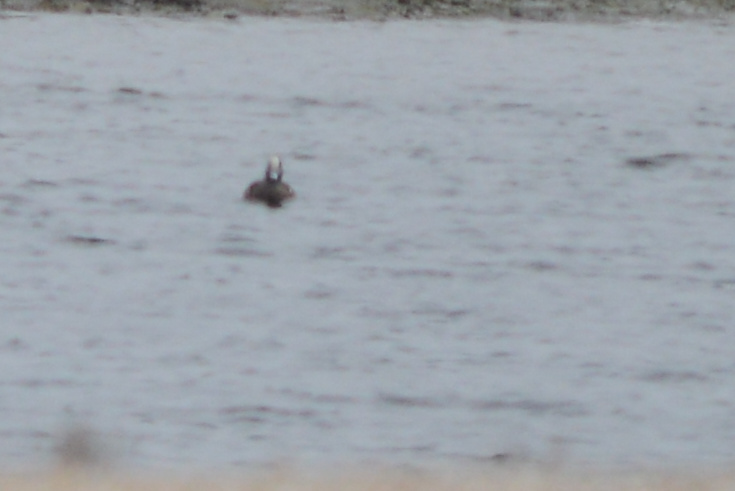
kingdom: Animalia
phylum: Chordata
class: Aves
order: Anseriformes
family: Anatidae
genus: Mareca
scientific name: Mareca americana
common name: American wigeon
